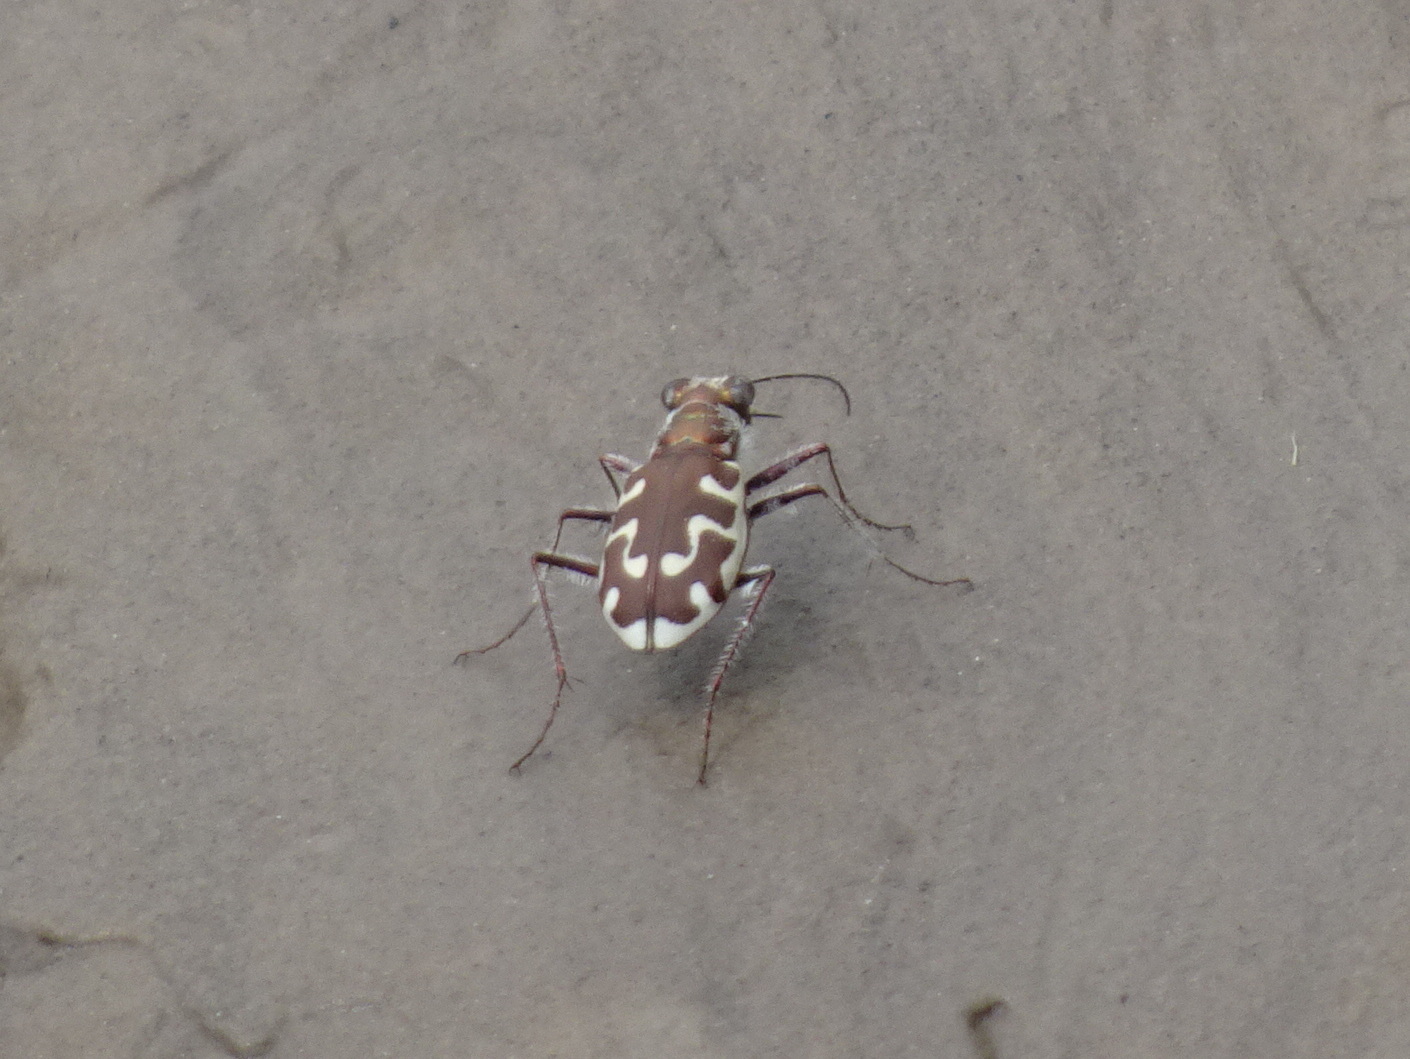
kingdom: Animalia
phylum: Arthropoda
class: Insecta
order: Coleoptera
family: Carabidae
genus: Cicindela
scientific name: Cicindela hirticollis
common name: Hairy-necked tiger beetle
